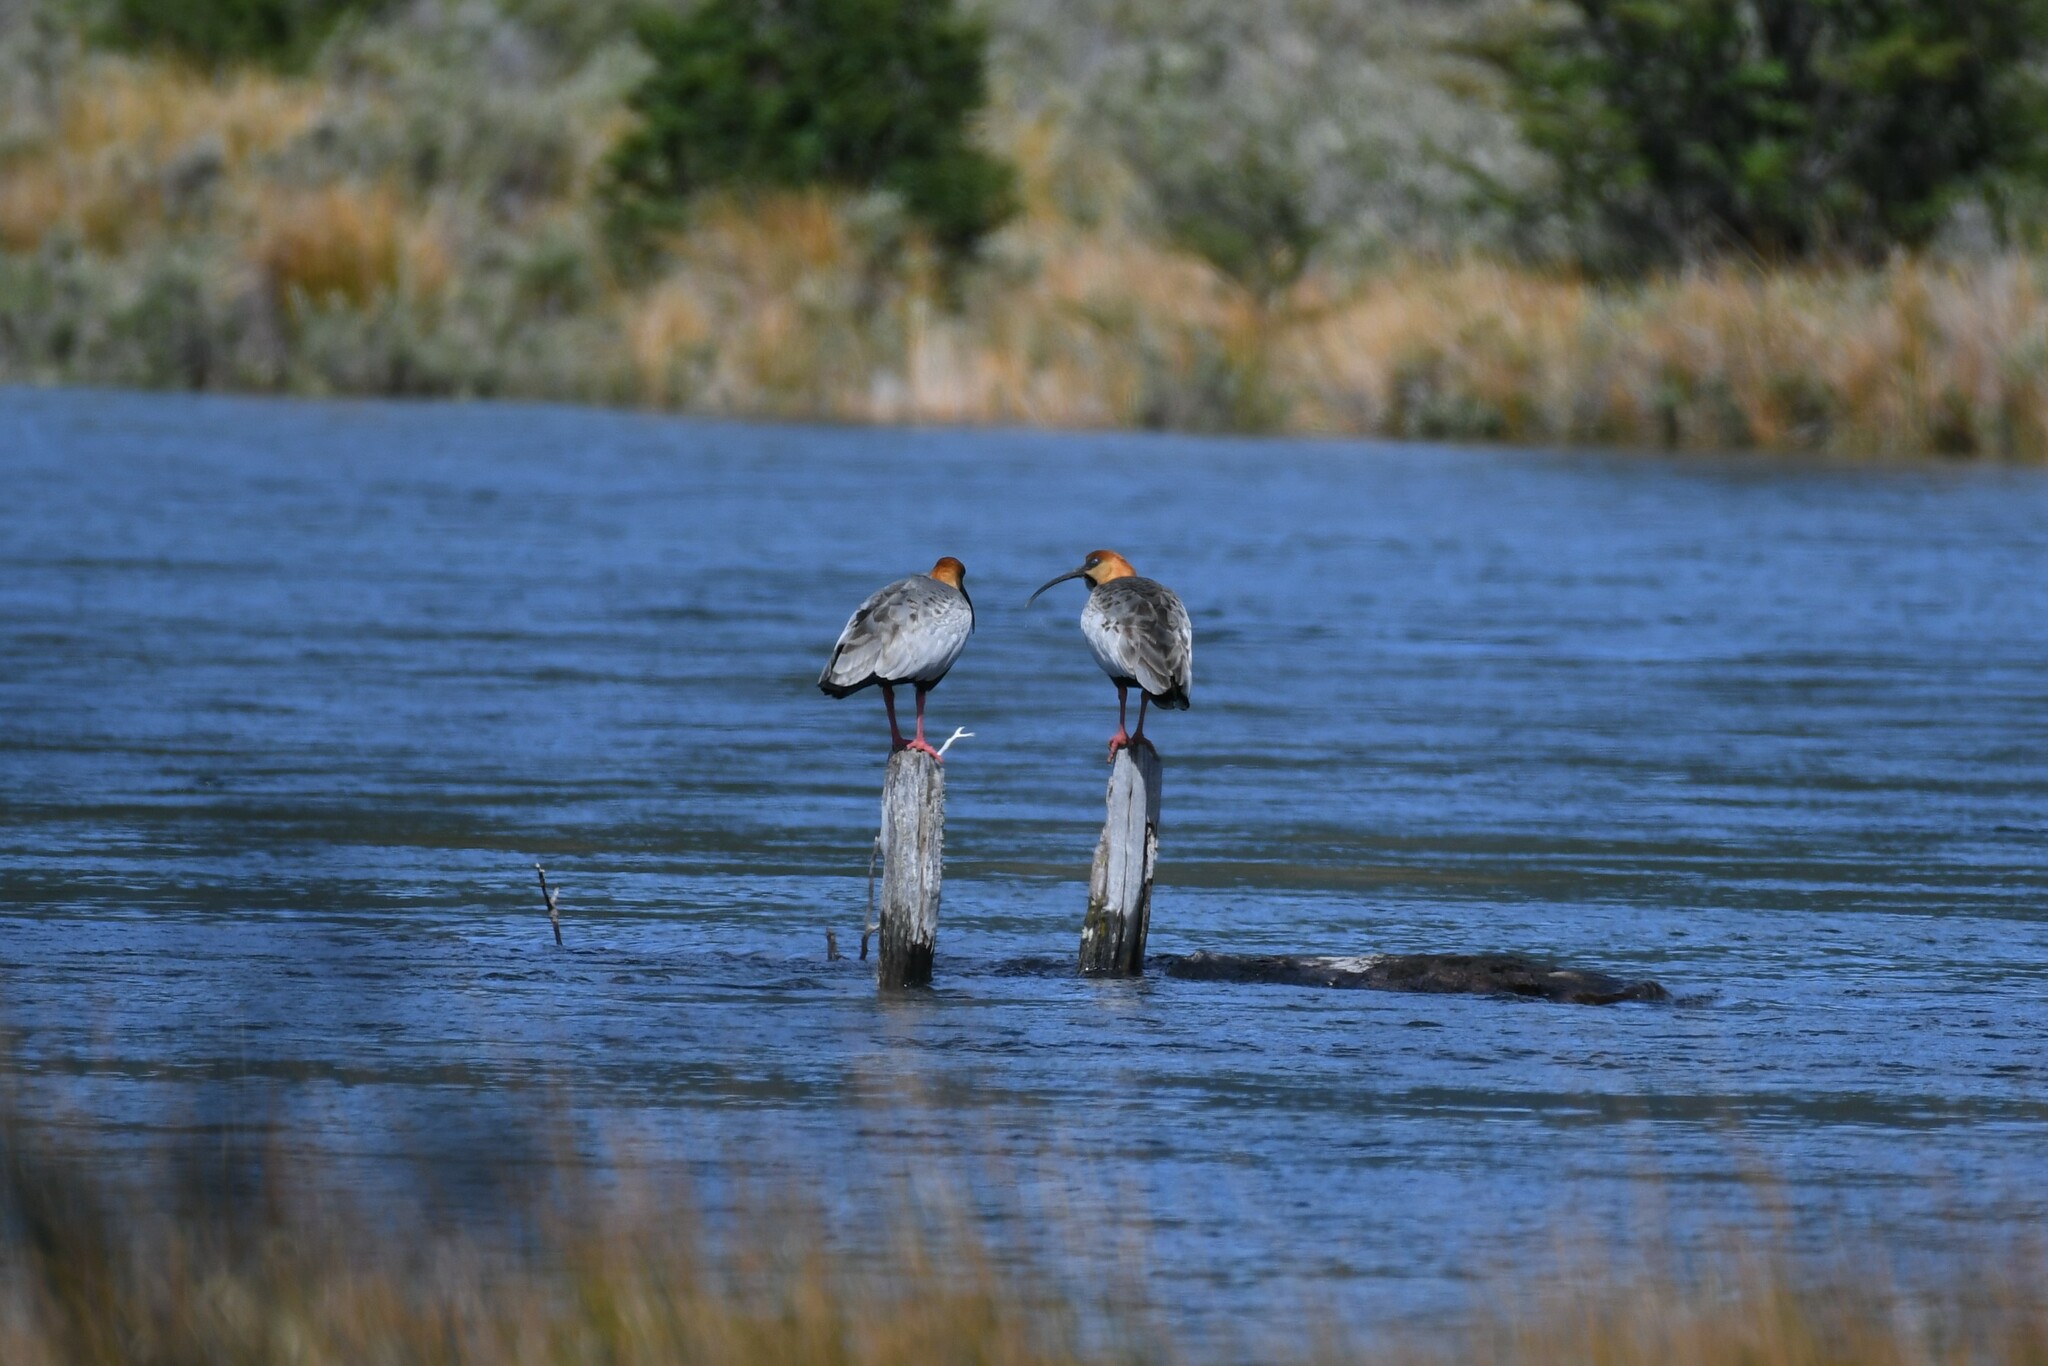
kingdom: Animalia
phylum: Chordata
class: Aves
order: Pelecaniformes
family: Threskiornithidae
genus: Theristicus
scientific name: Theristicus melanopis
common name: Black-faced ibis
